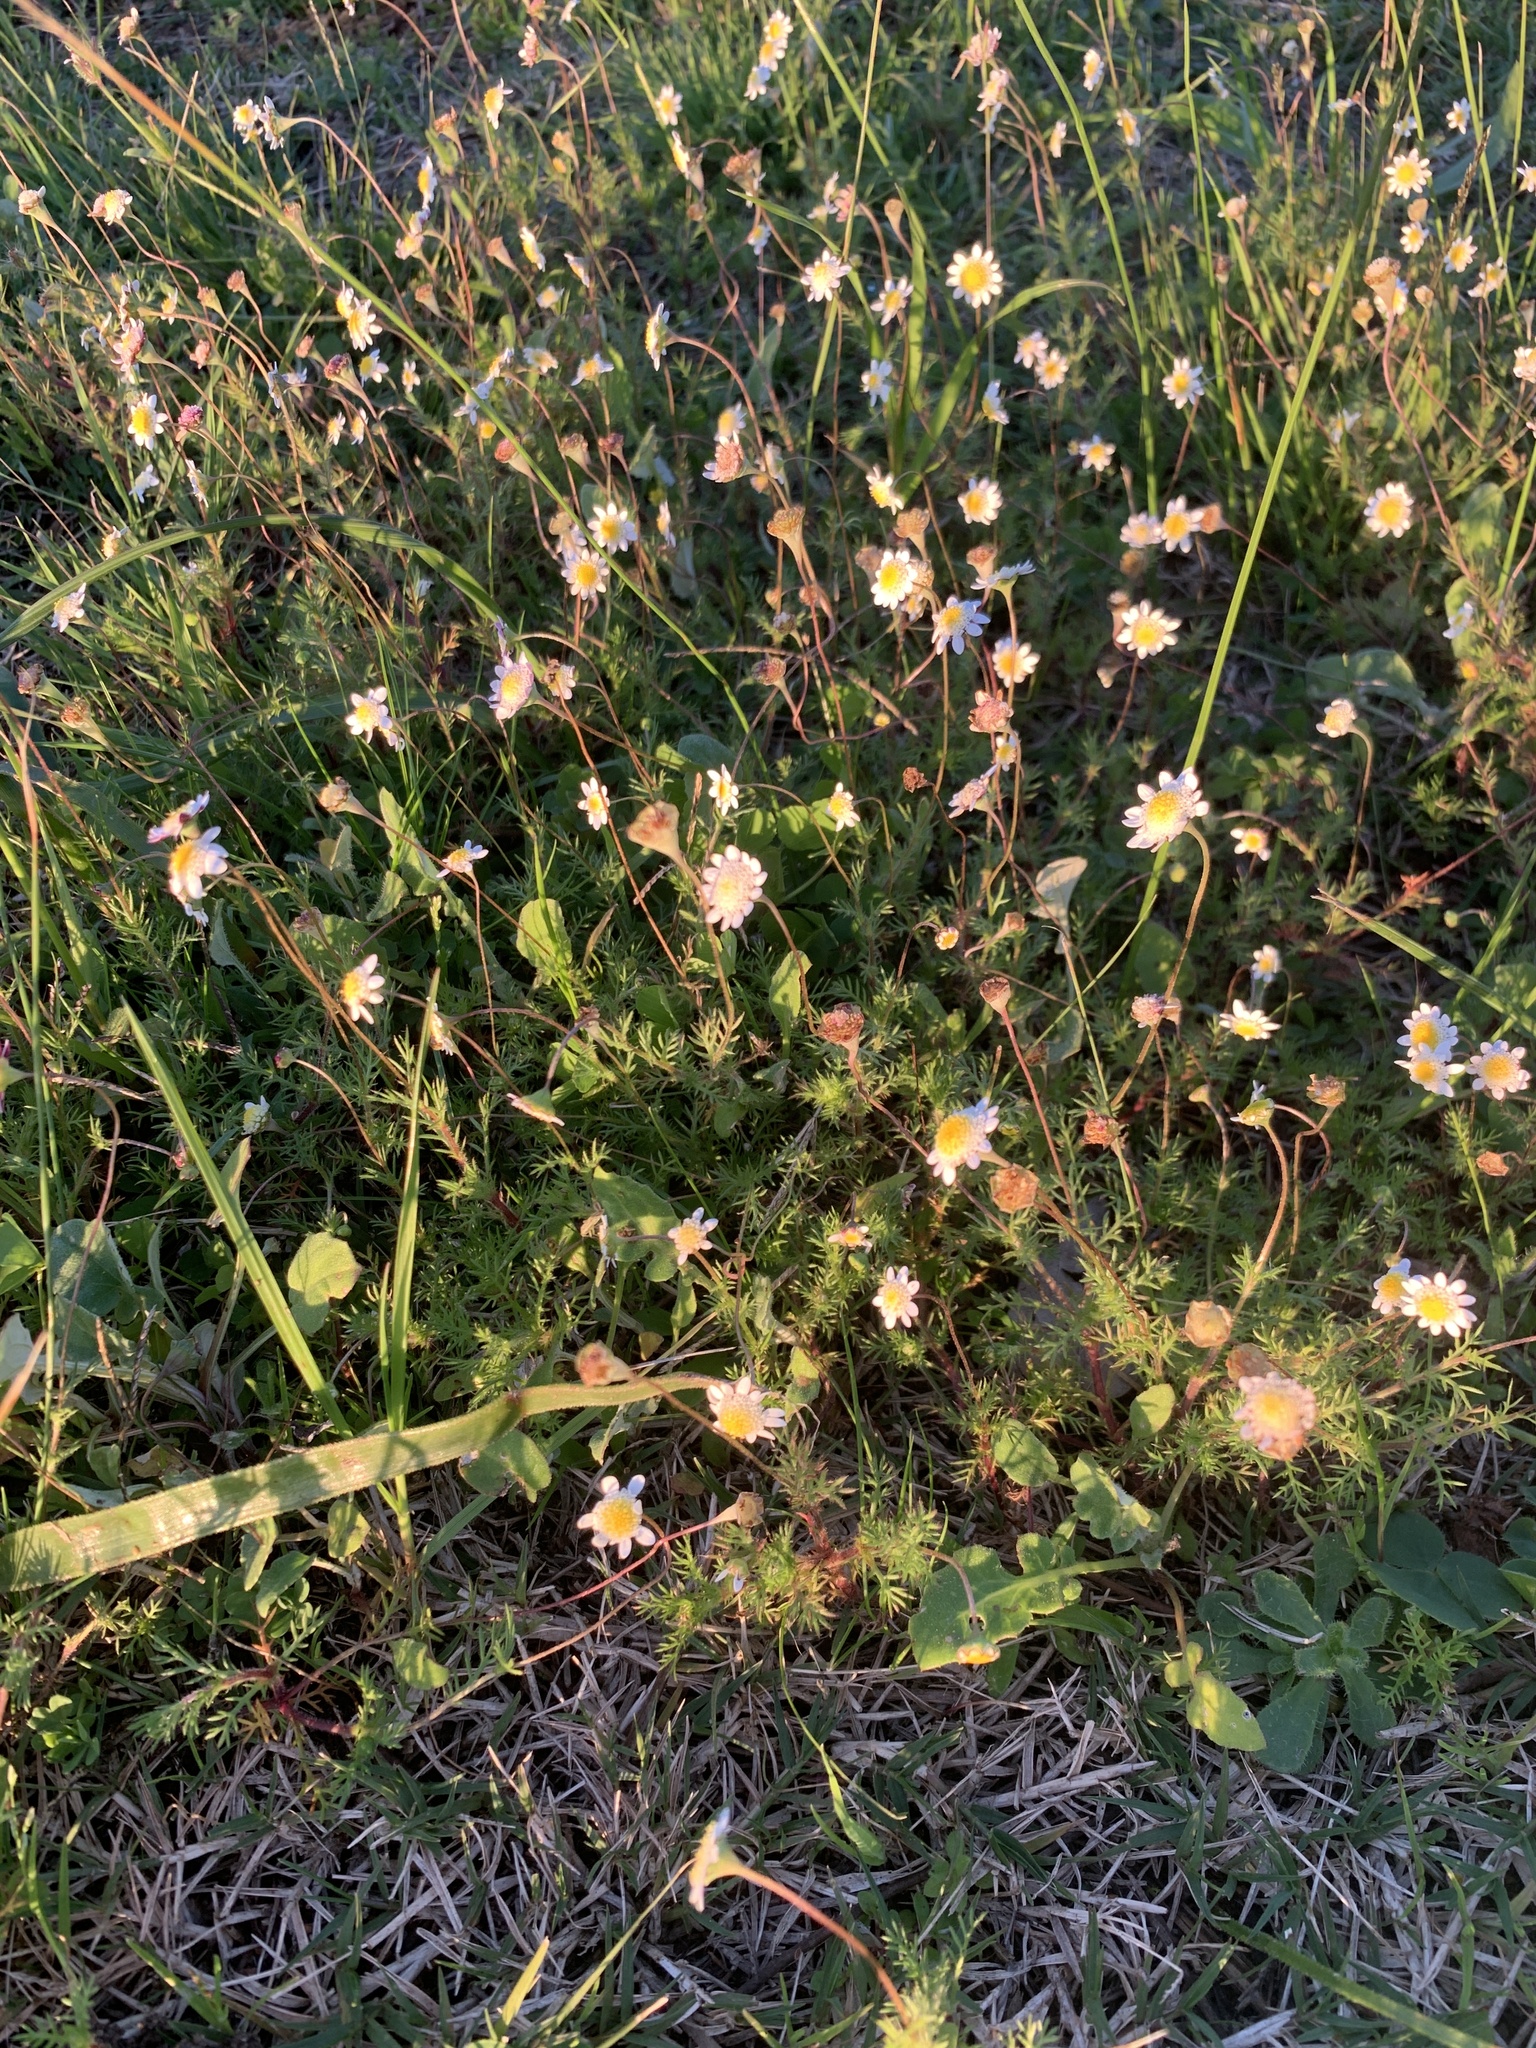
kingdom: Plantae
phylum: Tracheophyta
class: Magnoliopsida
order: Asterales
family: Asteraceae
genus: Cotula
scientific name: Cotula turbinata
